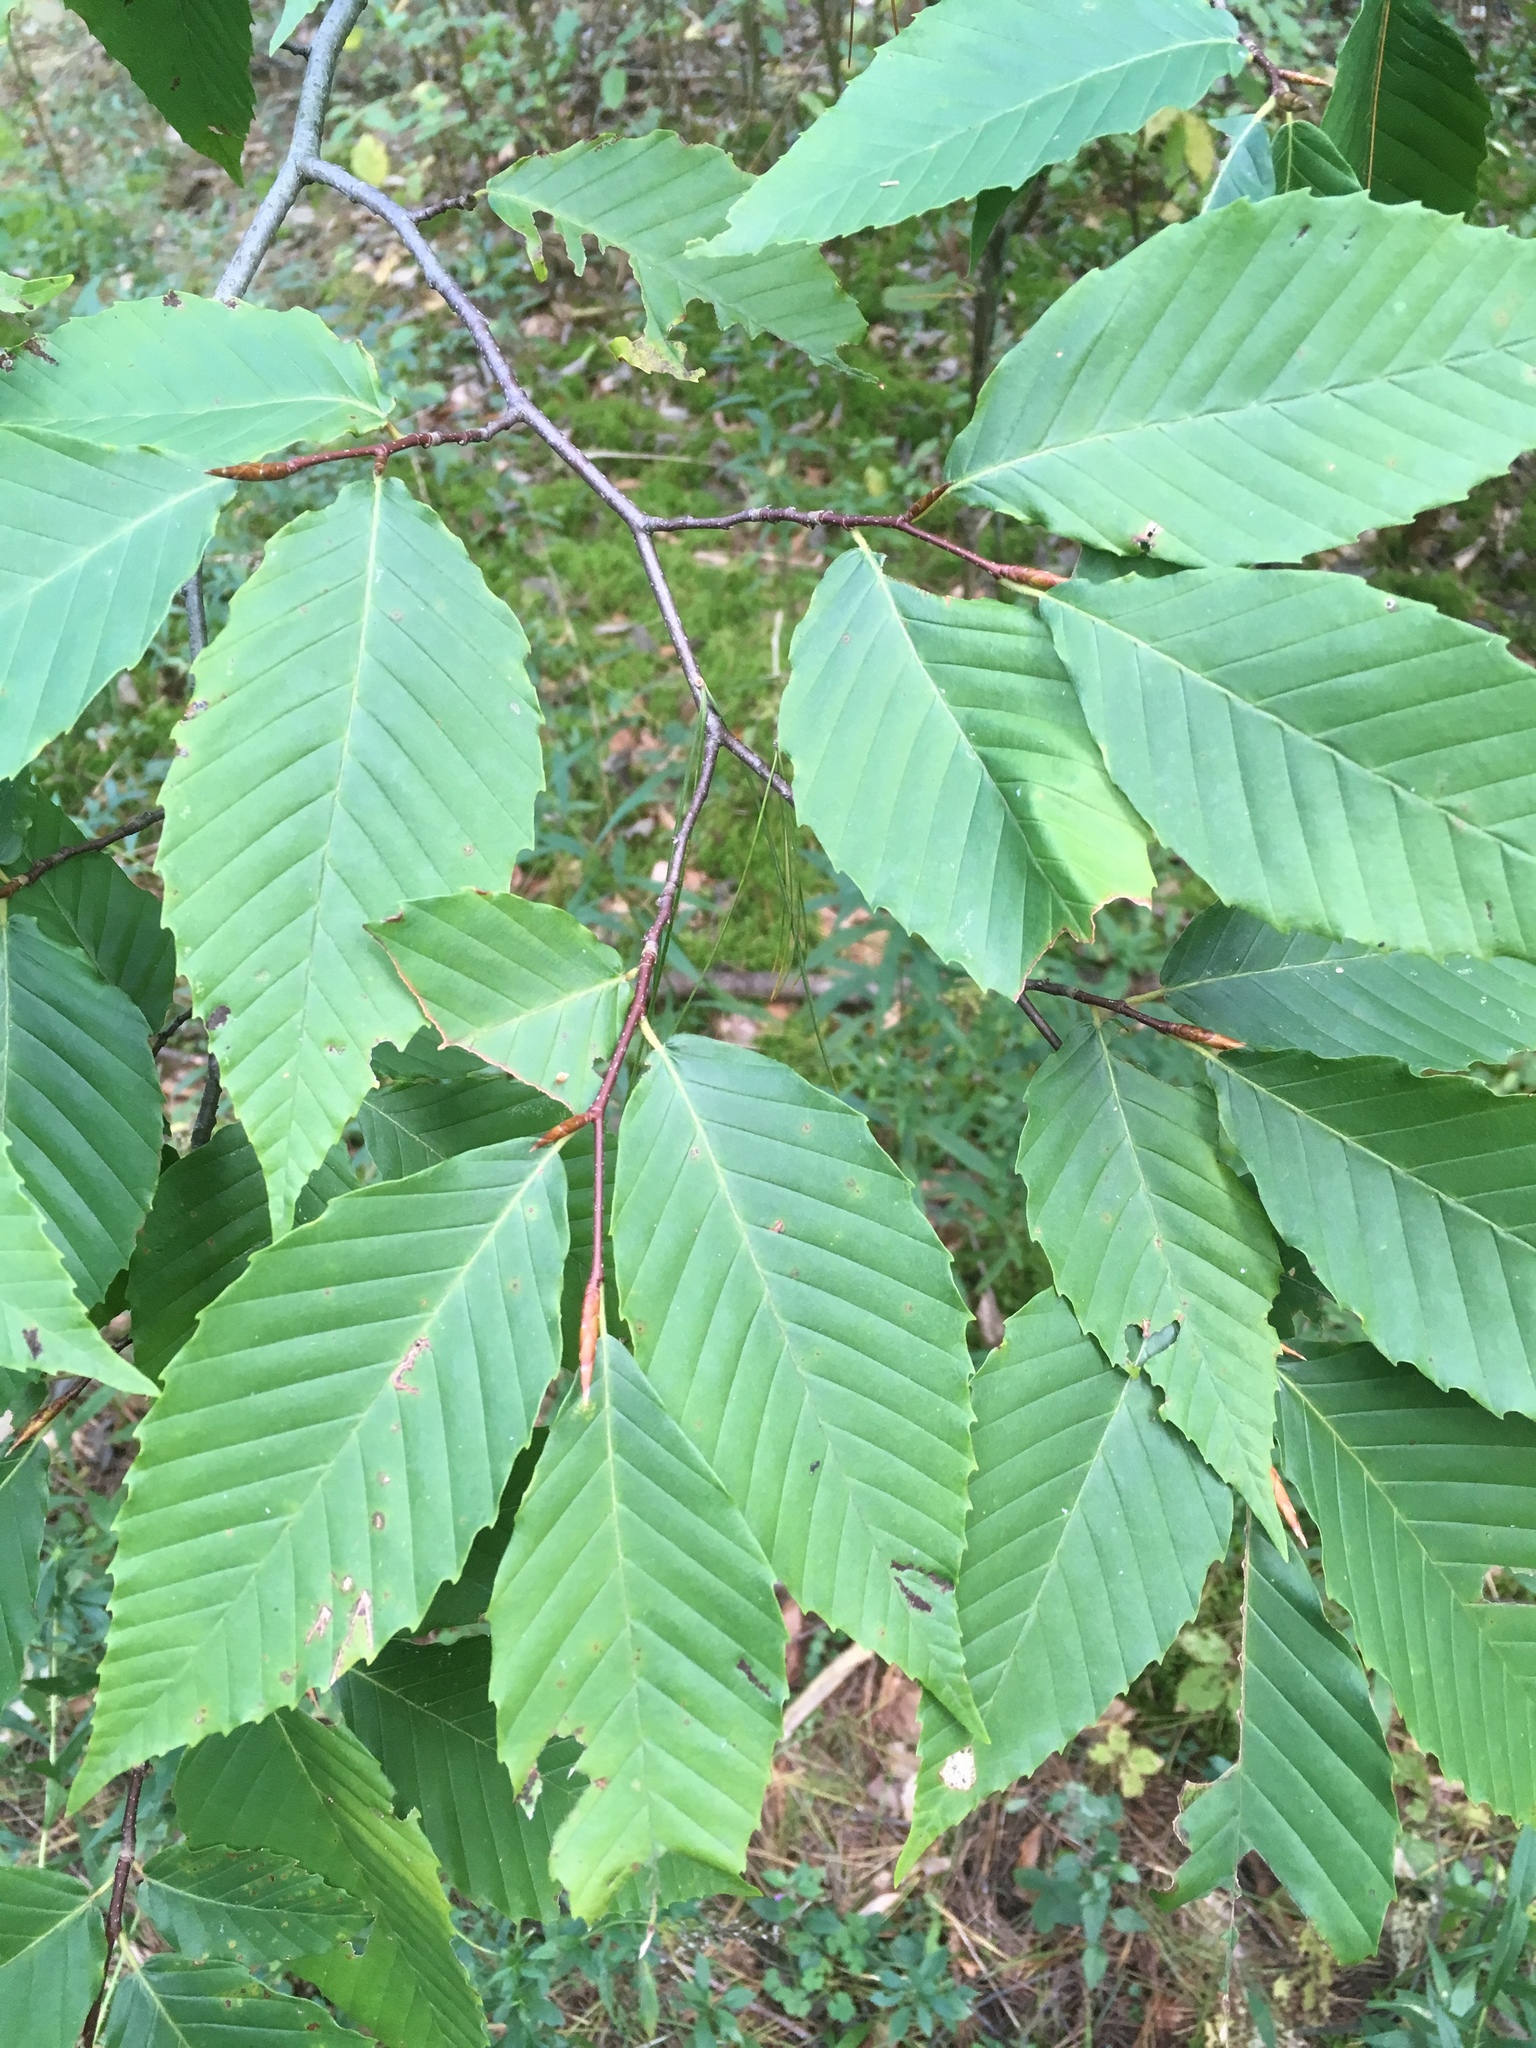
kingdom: Plantae
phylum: Tracheophyta
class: Magnoliopsida
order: Fagales
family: Fagaceae
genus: Fagus
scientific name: Fagus grandifolia
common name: American beech
